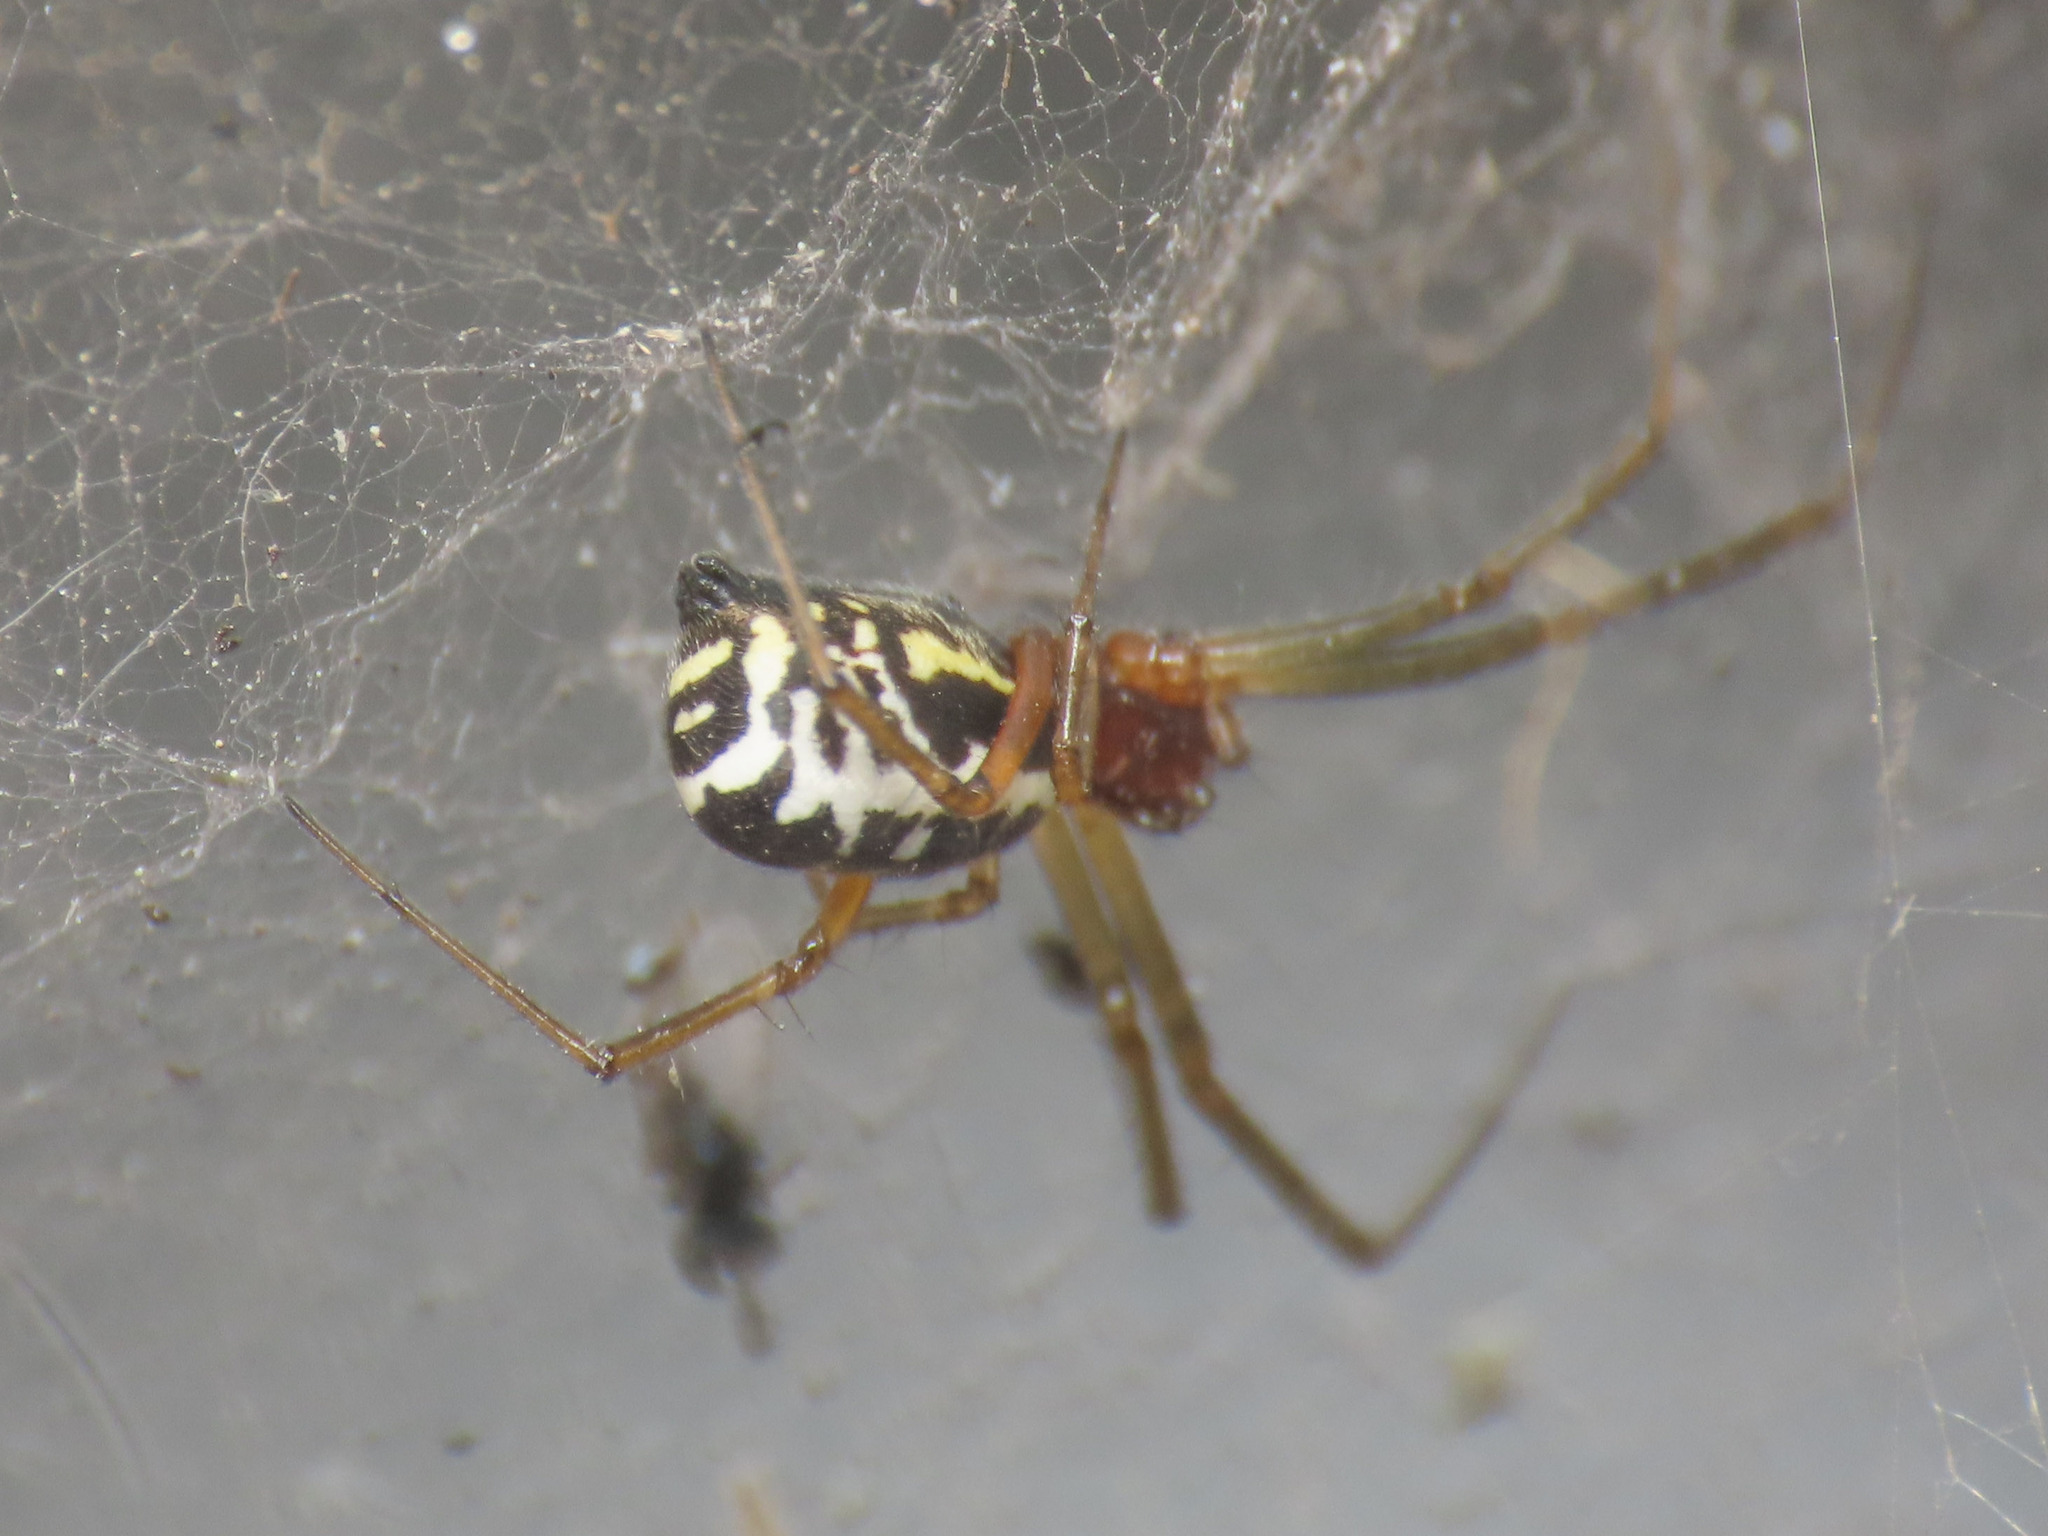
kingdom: Animalia
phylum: Arthropoda
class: Arachnida
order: Araneae
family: Linyphiidae
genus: Frontinellina
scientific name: Frontinellina frutetorum
